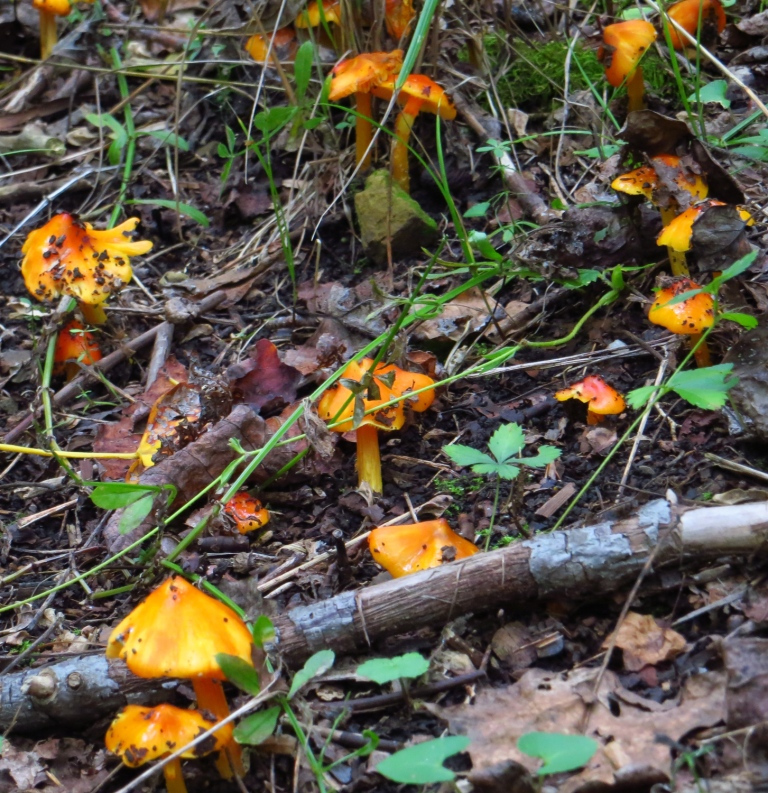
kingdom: Fungi
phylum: Basidiomycota
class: Agaricomycetes
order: Agaricales
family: Hygrophoraceae
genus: Hygrocybe
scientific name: Hygrocybe conica
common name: Blackening wax-cap
